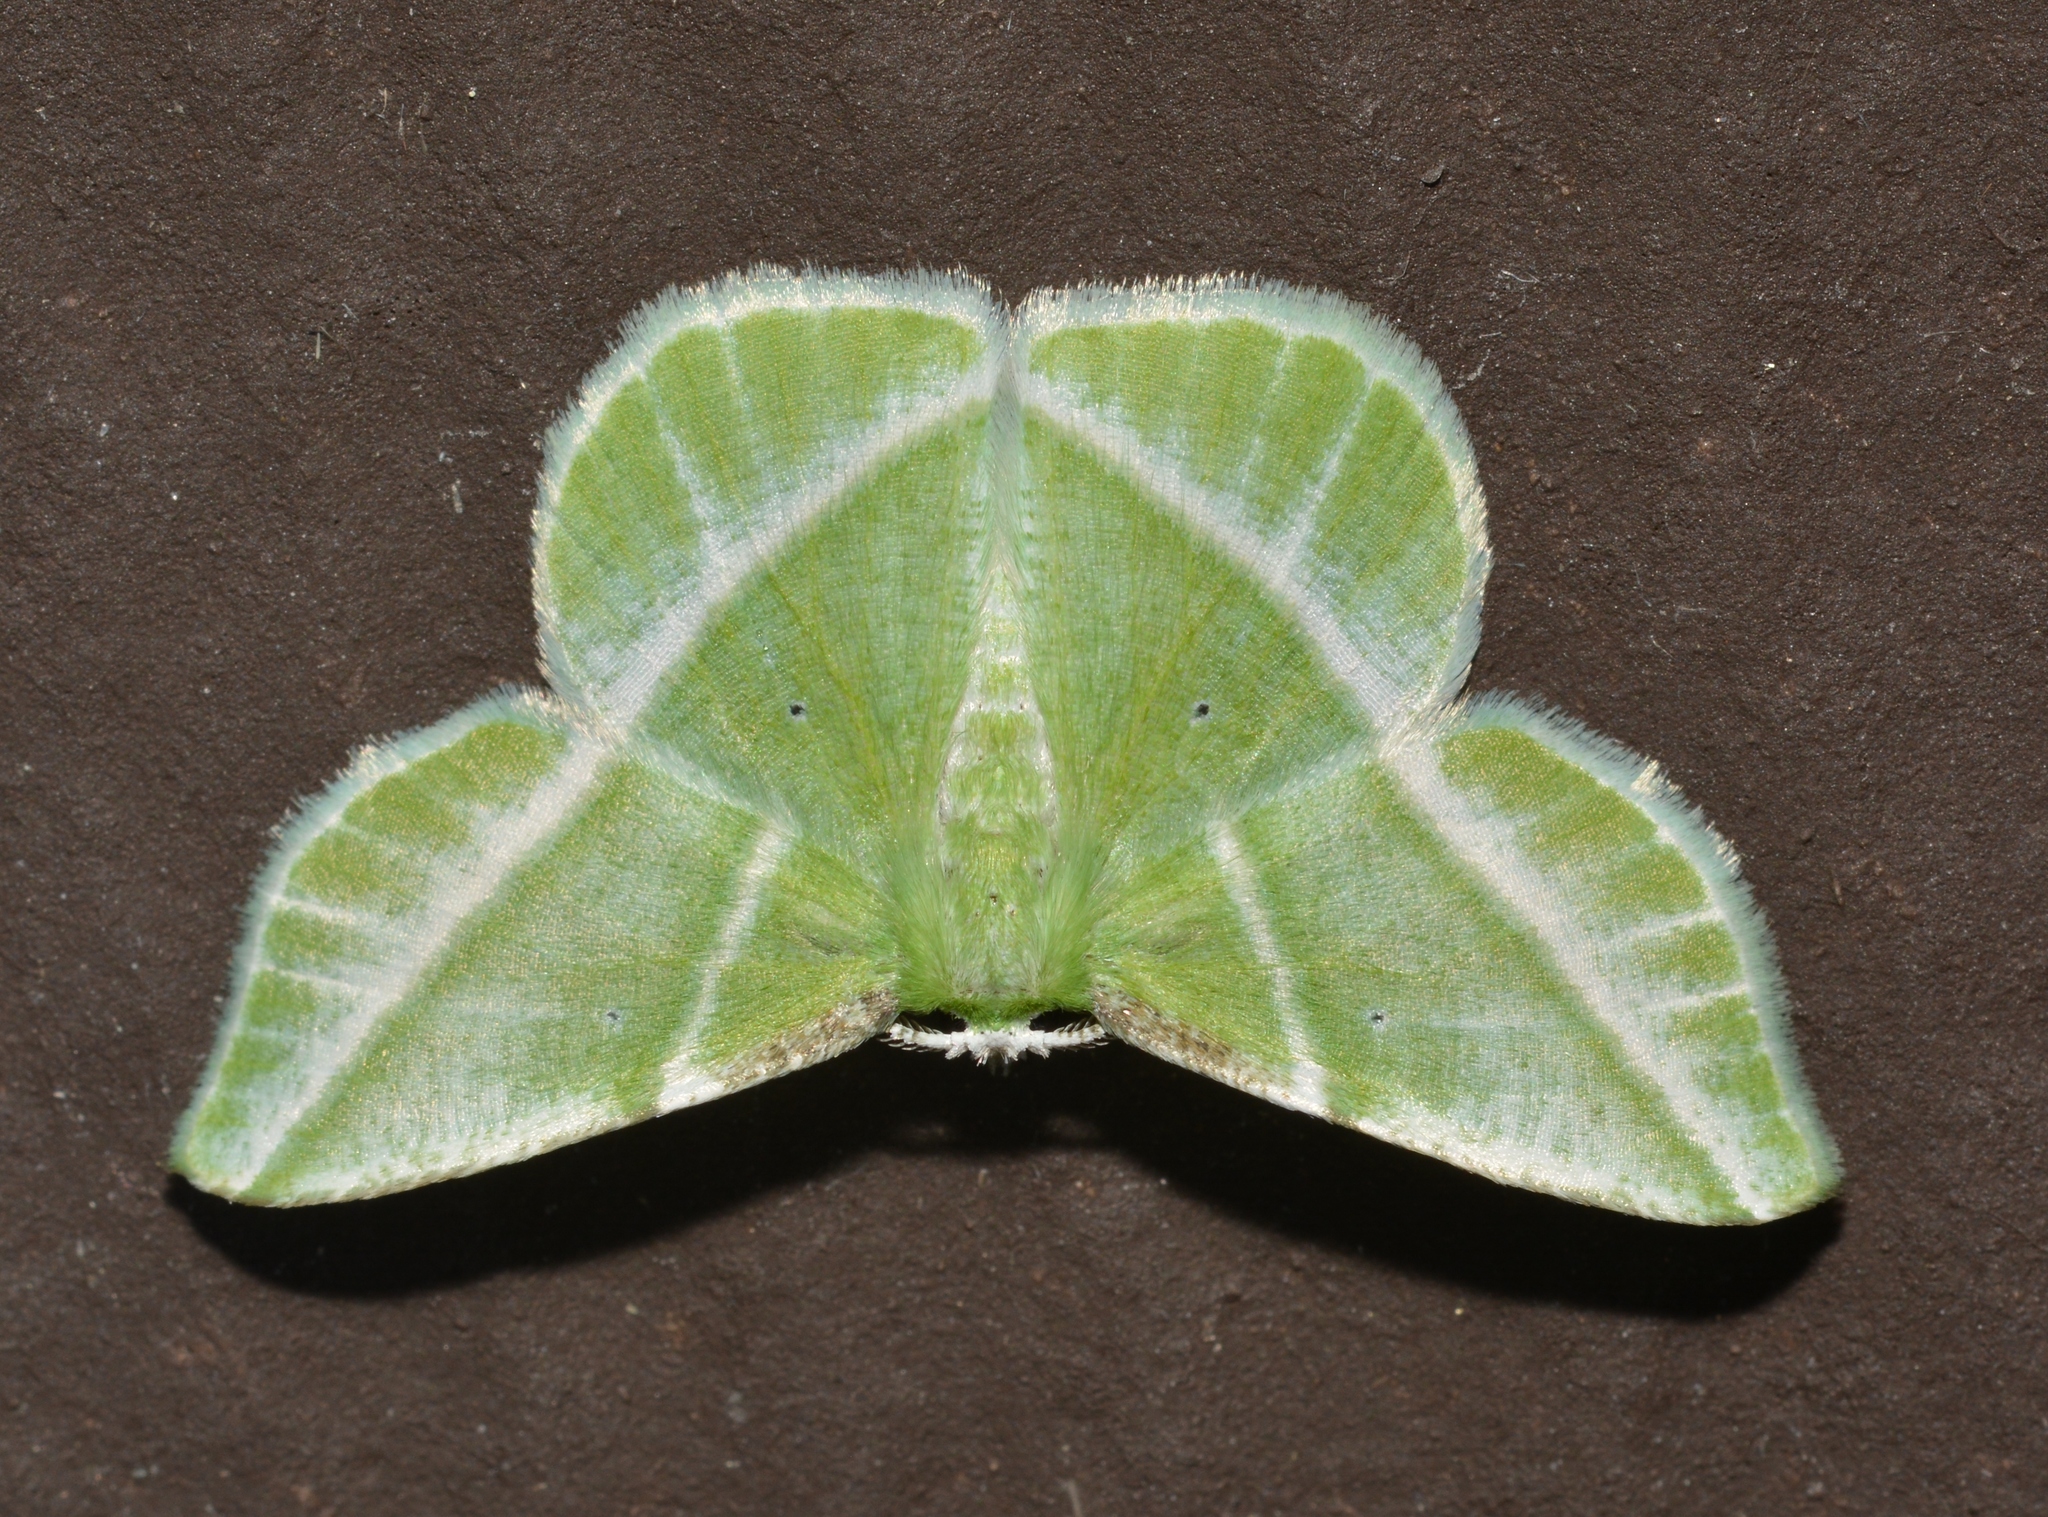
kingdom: Animalia
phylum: Arthropoda
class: Insecta
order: Lepidoptera
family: Geometridae
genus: Dichorda
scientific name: Dichorda iridaria
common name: Showy emerald
